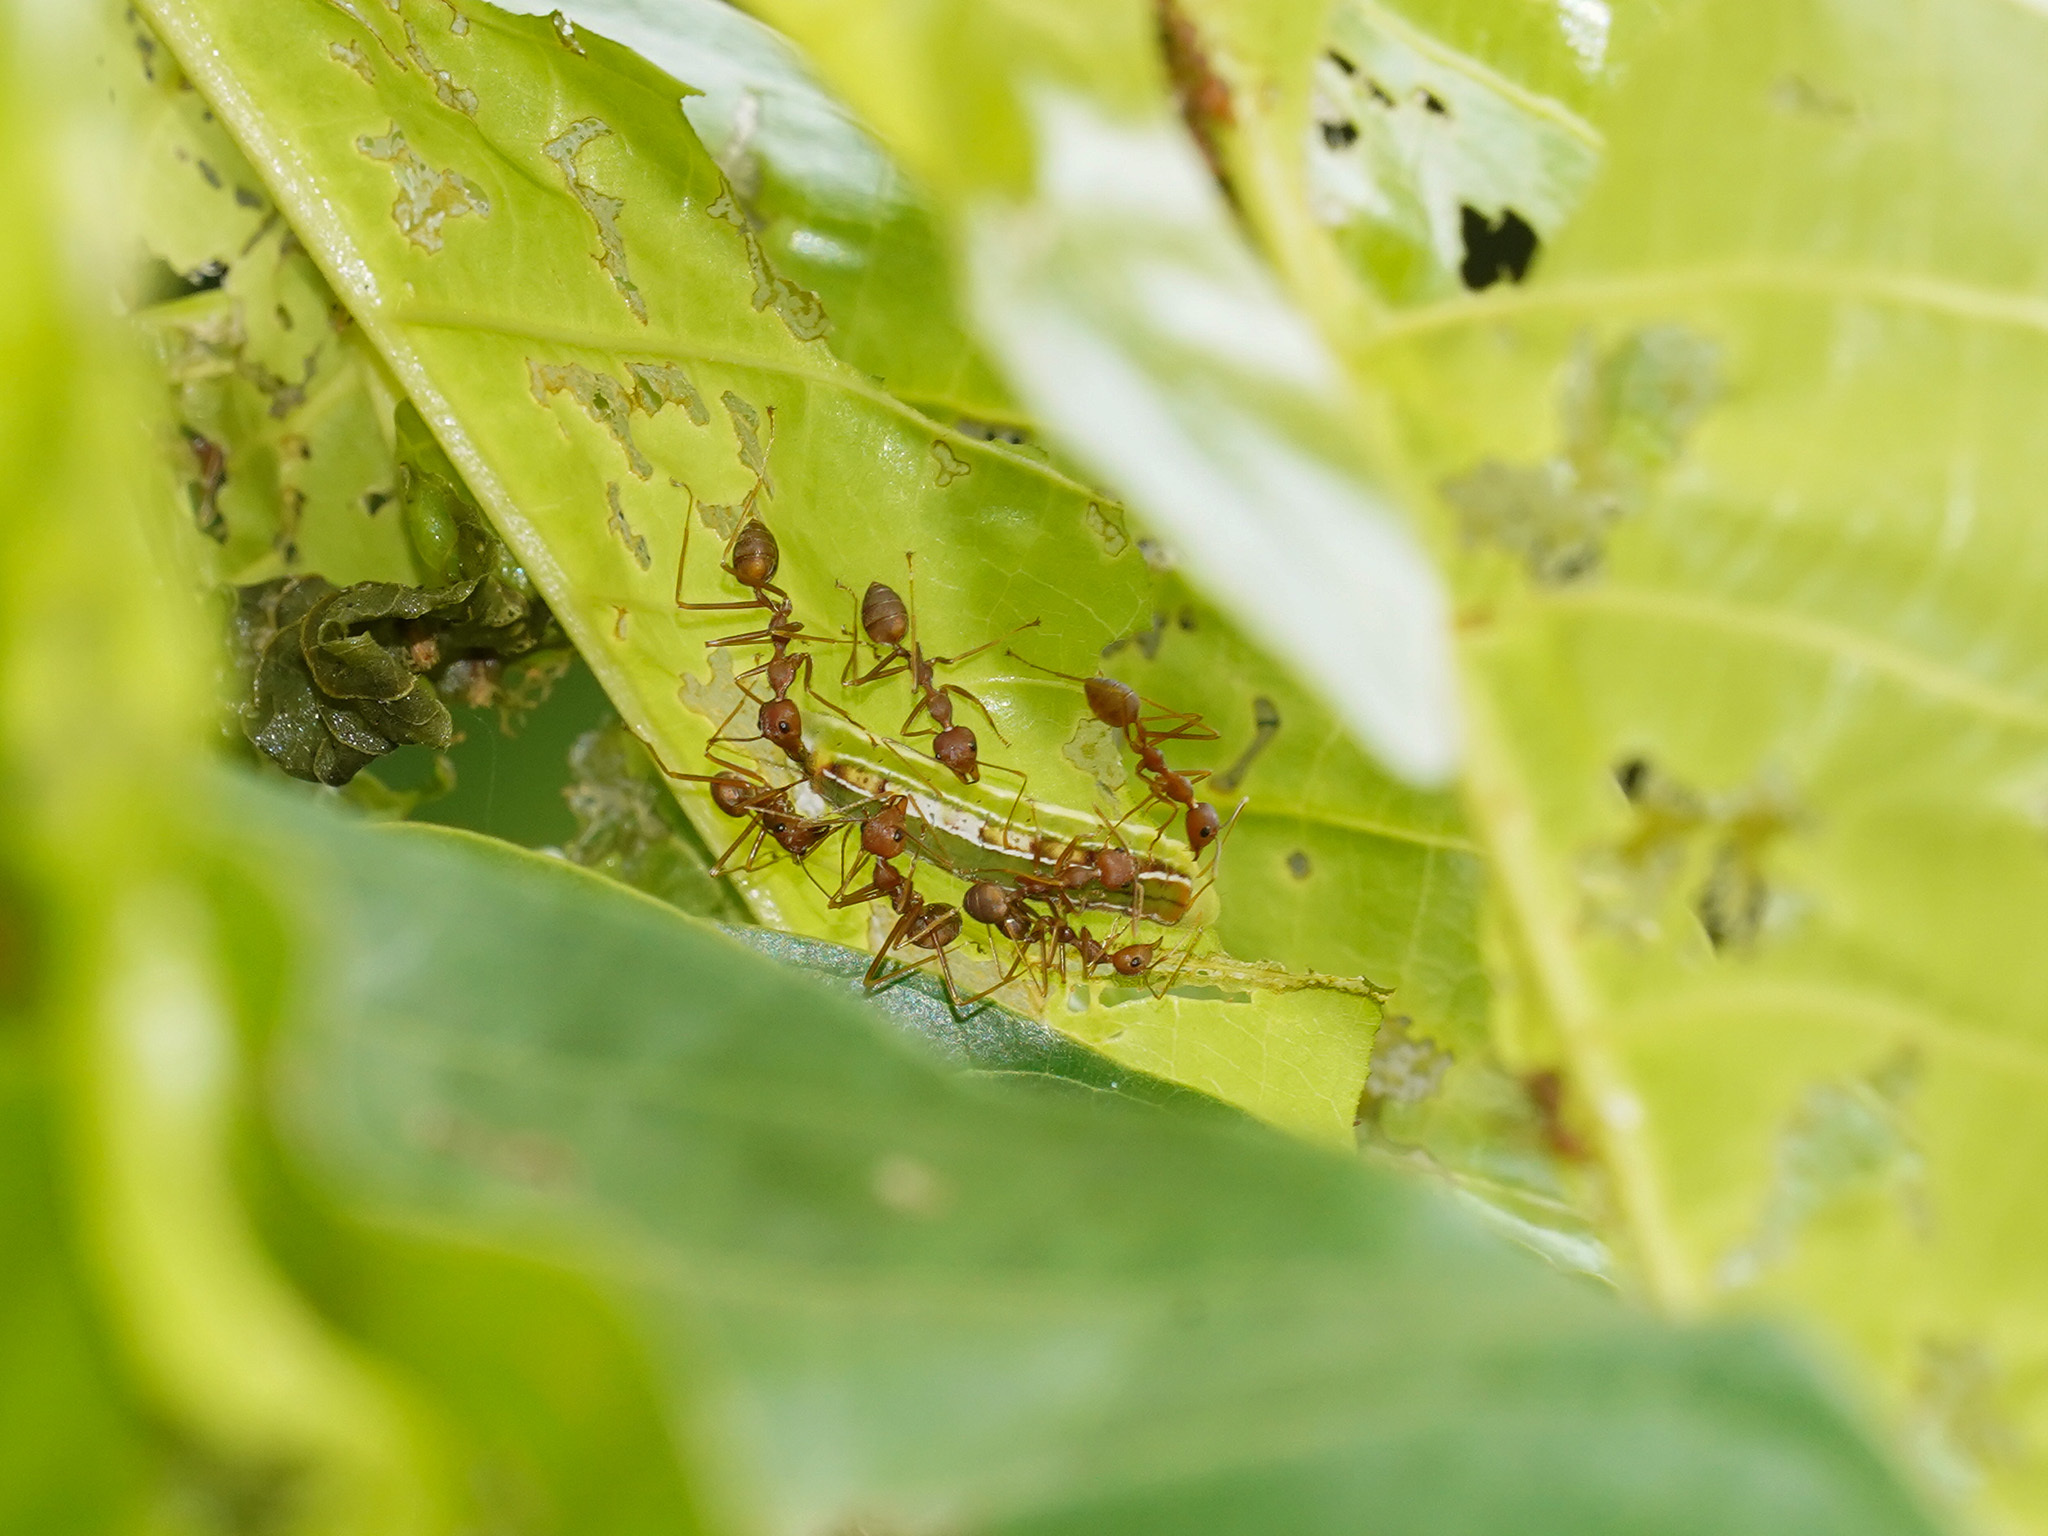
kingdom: Animalia
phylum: Arthropoda
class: Insecta
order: Lepidoptera
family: Lycaenidae
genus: Hypolycaena
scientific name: Hypolycaena erylus
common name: Common tit
